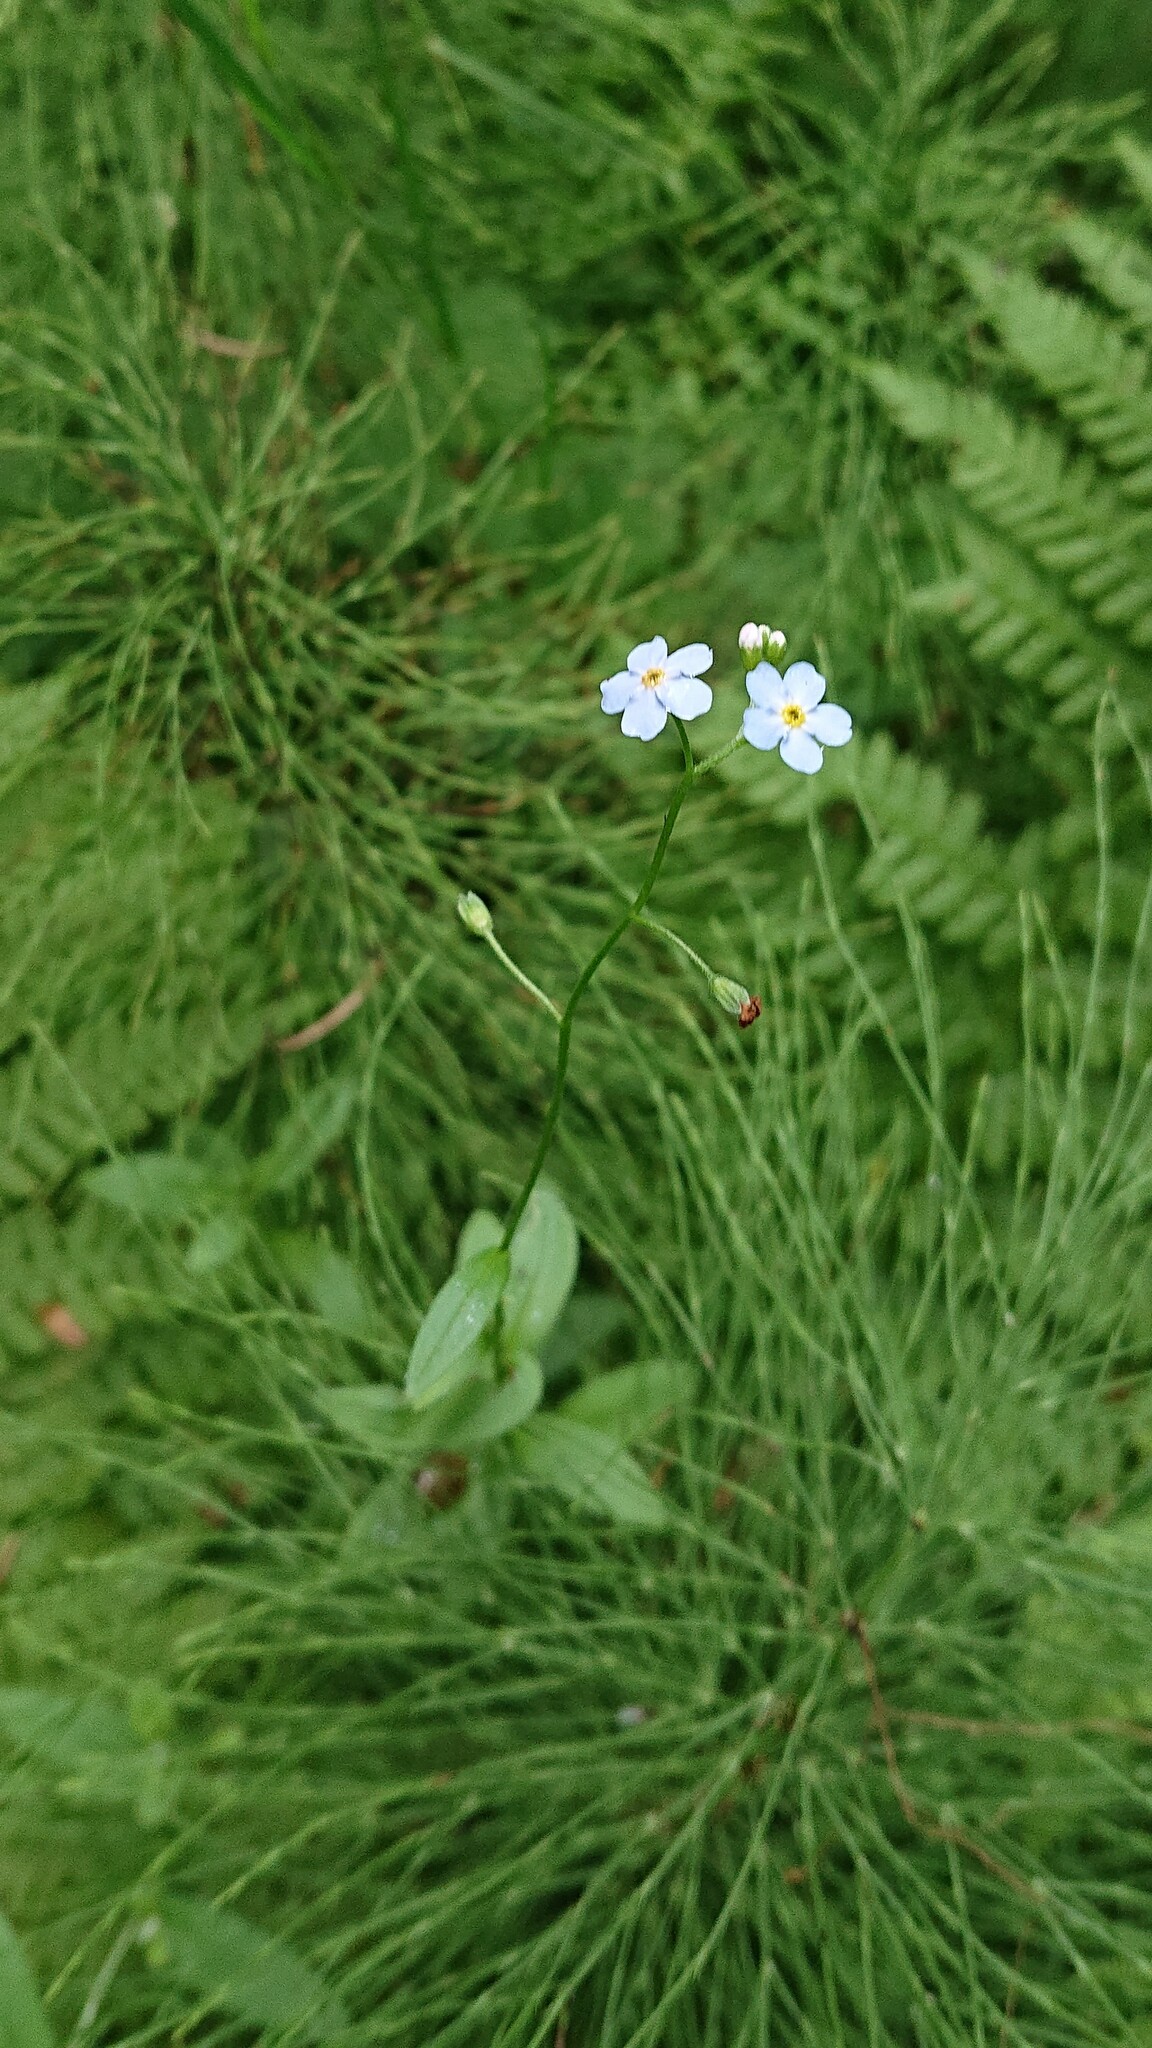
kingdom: Plantae
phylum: Tracheophyta
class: Magnoliopsida
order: Boraginales
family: Boraginaceae
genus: Myosotis
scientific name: Myosotis scorpioides
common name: Water forget-me-not
